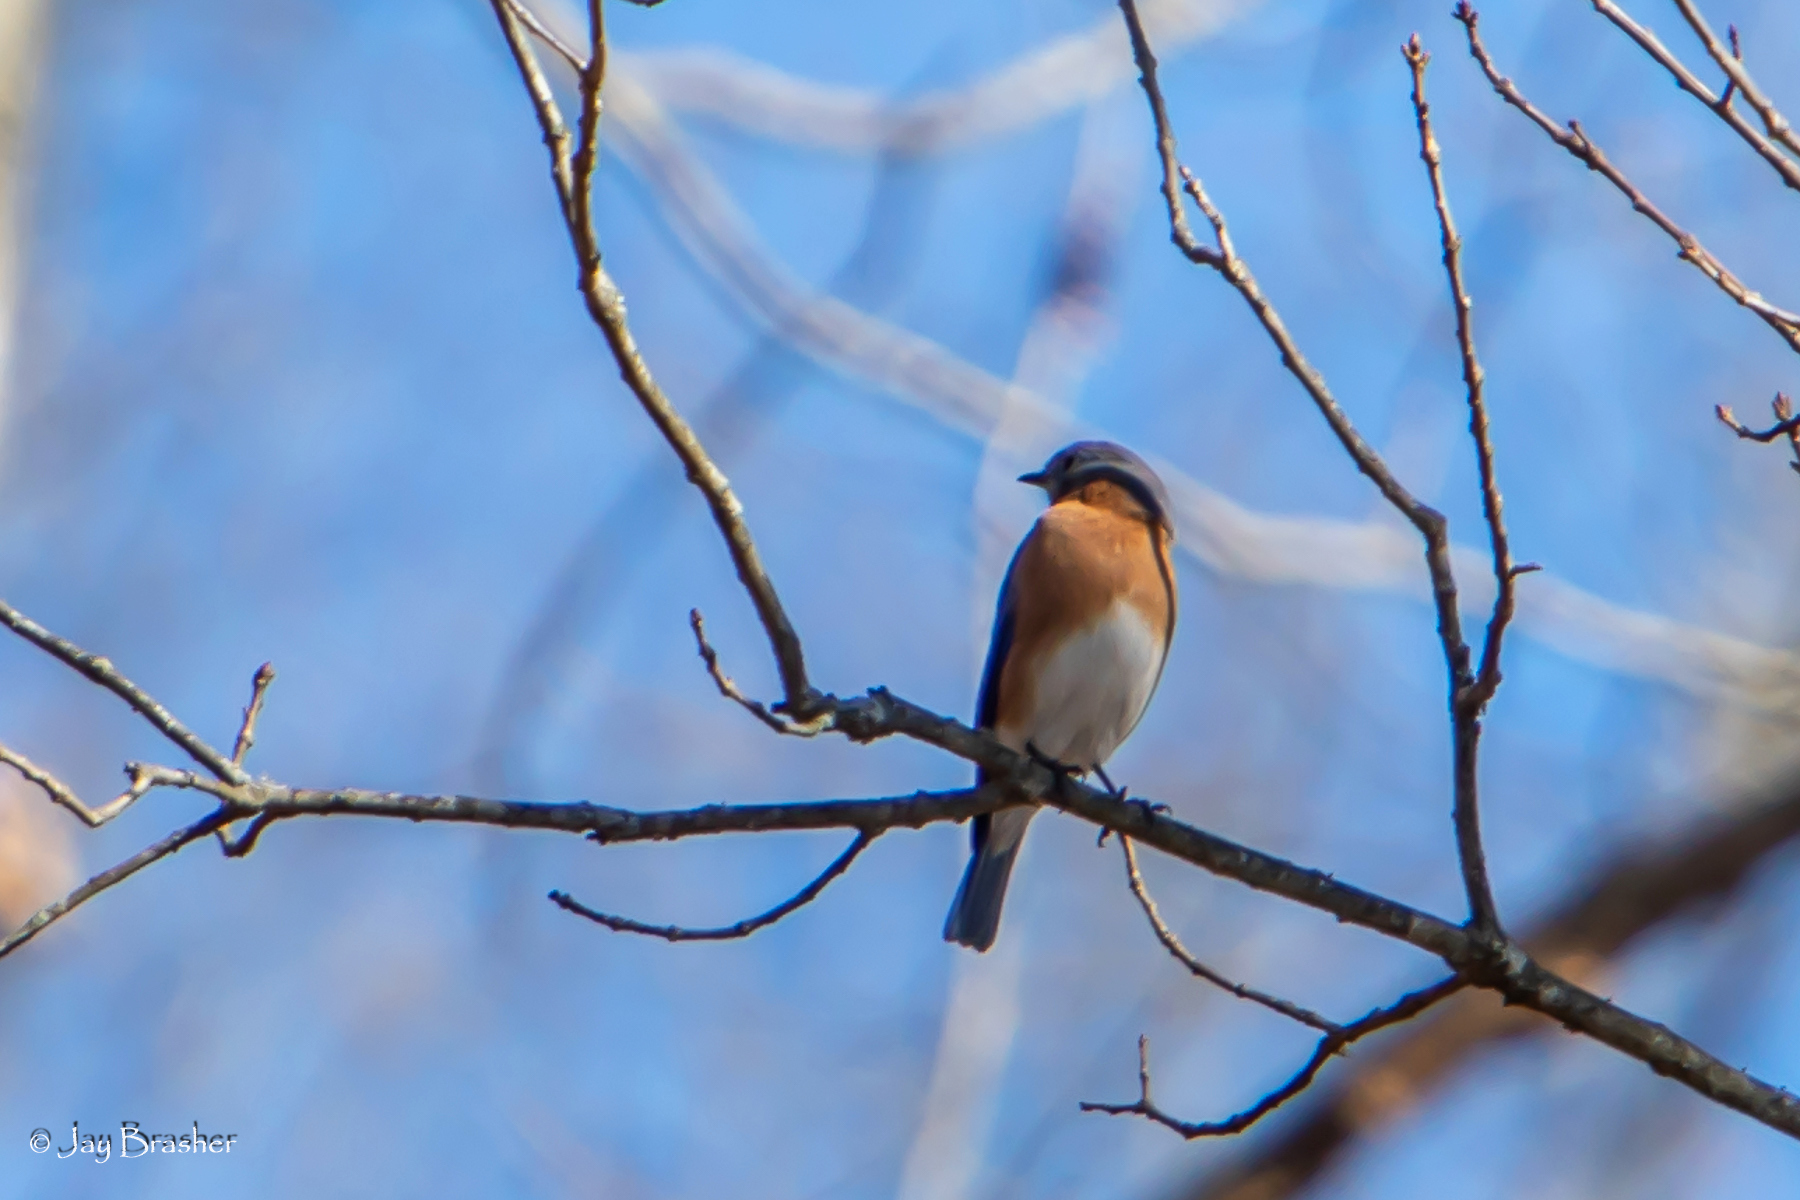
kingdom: Animalia
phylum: Chordata
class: Aves
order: Passeriformes
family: Turdidae
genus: Sialia
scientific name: Sialia sialis
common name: Eastern bluebird
